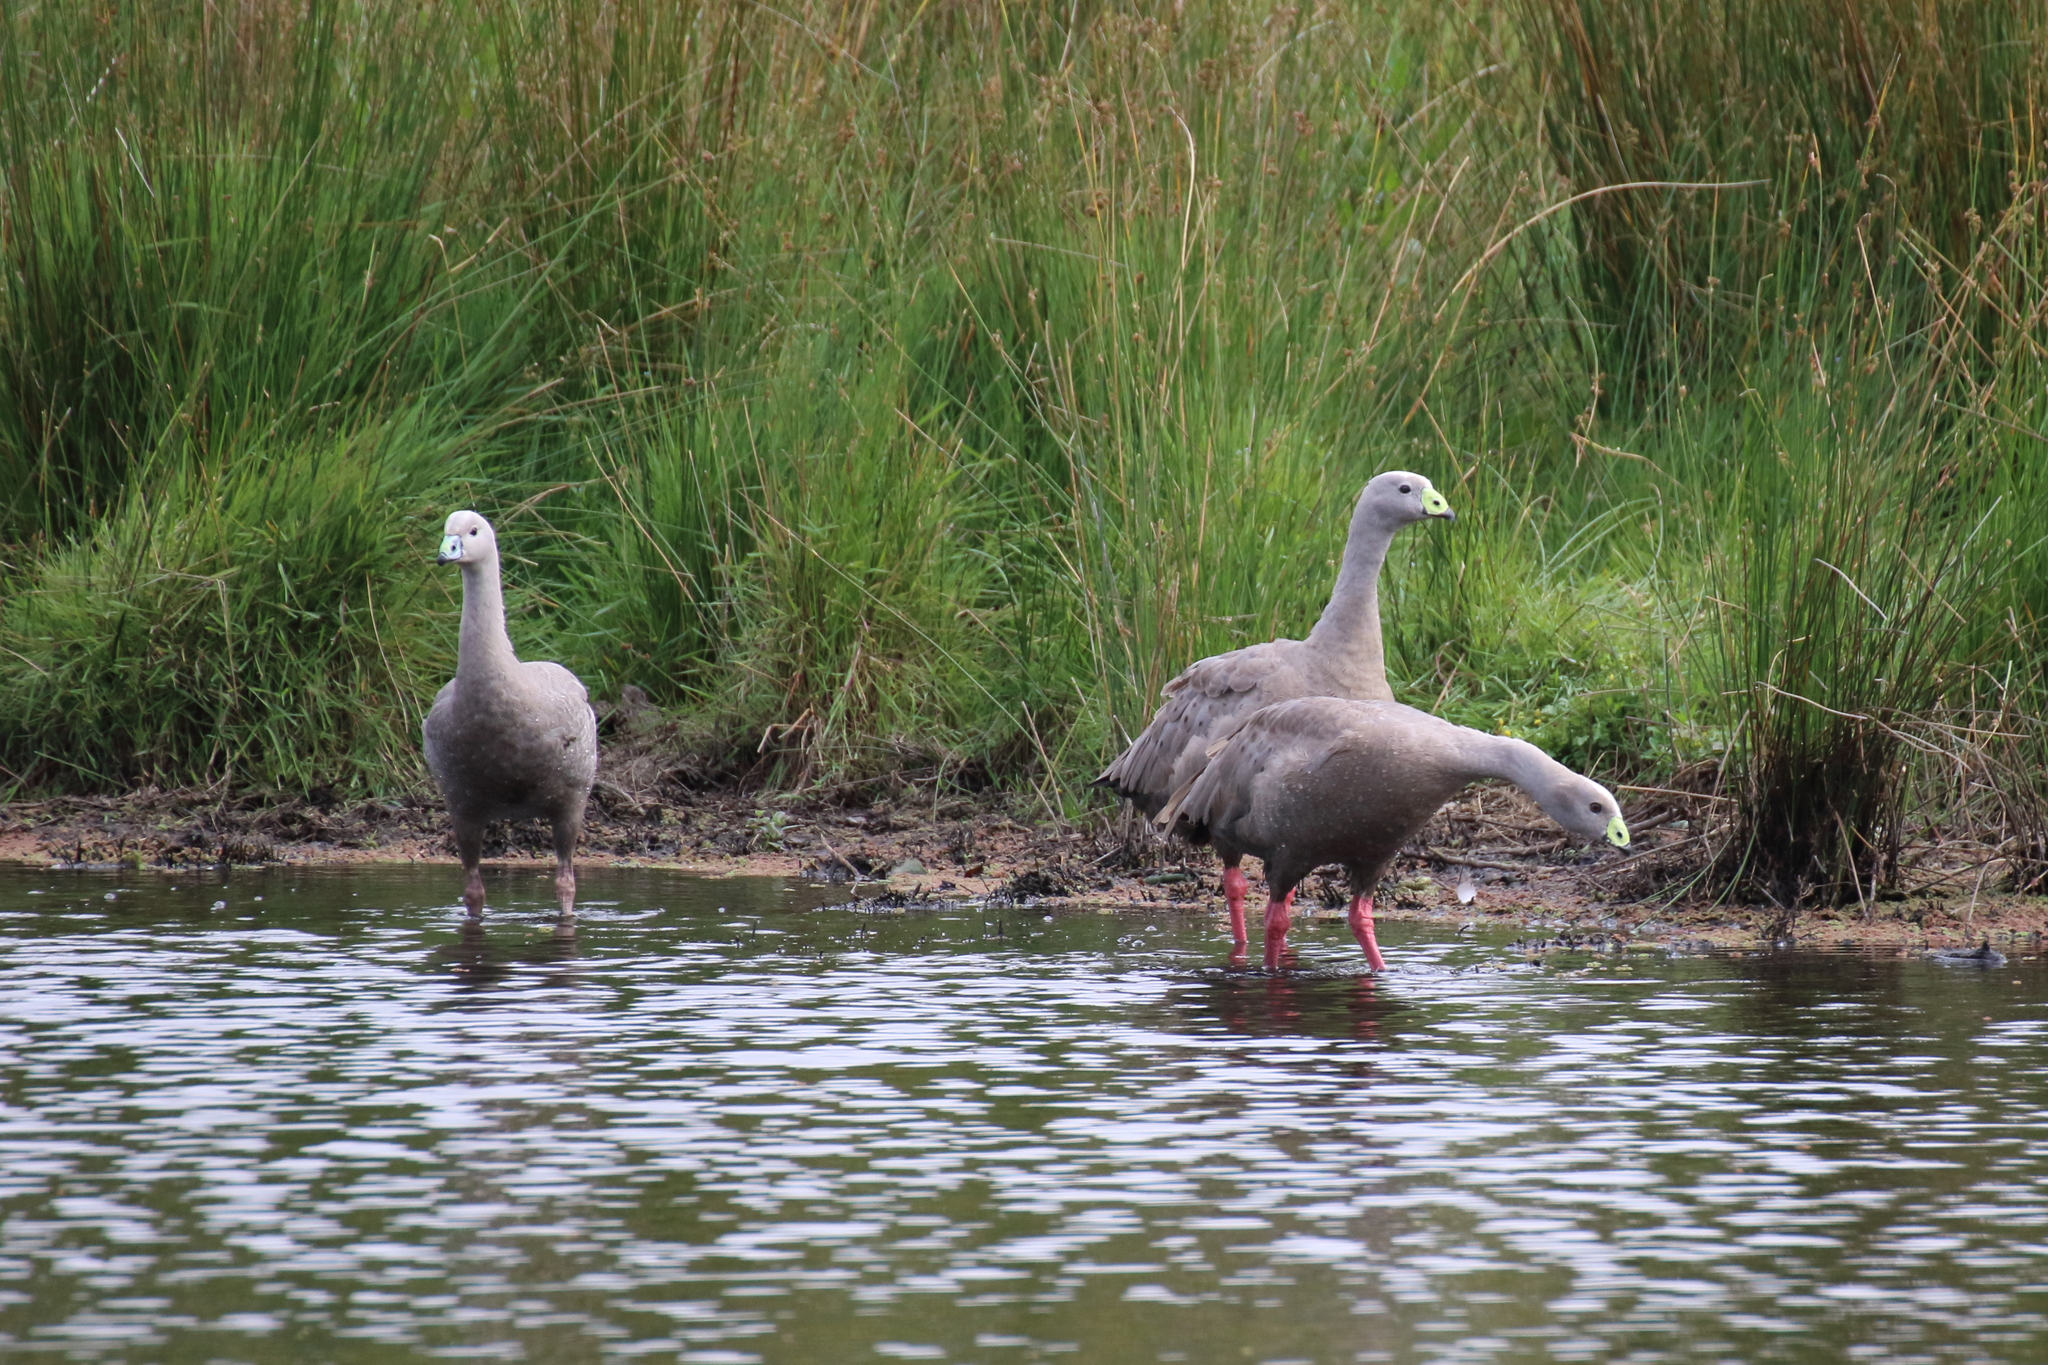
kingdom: Animalia
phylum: Chordata
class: Aves
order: Anseriformes
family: Anatidae
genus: Cereopsis
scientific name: Cereopsis novaehollandiae
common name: Cape barren goose
